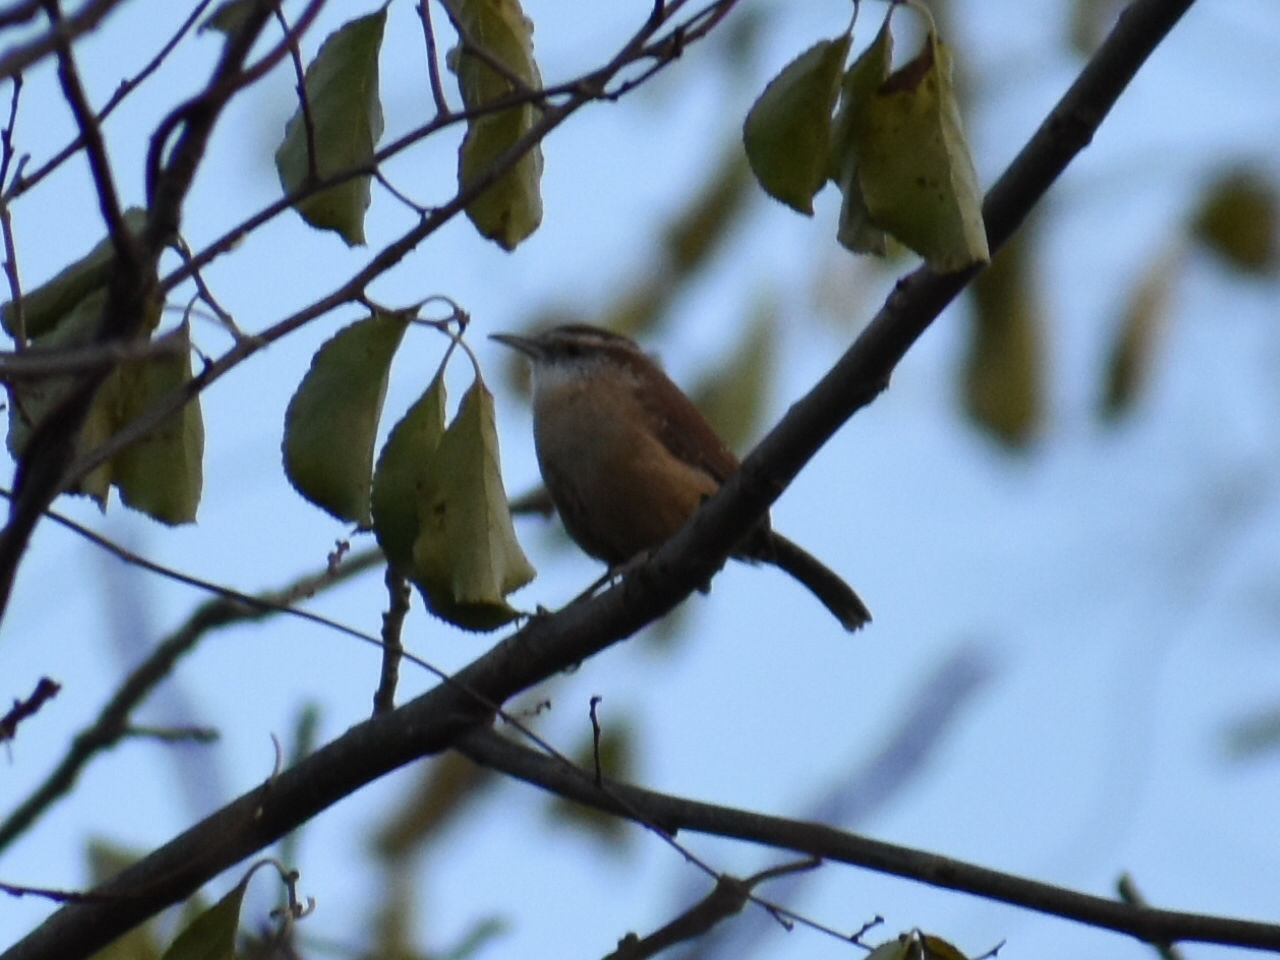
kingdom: Animalia
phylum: Chordata
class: Aves
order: Passeriformes
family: Troglodytidae
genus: Thryothorus
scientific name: Thryothorus ludovicianus
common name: Carolina wren
